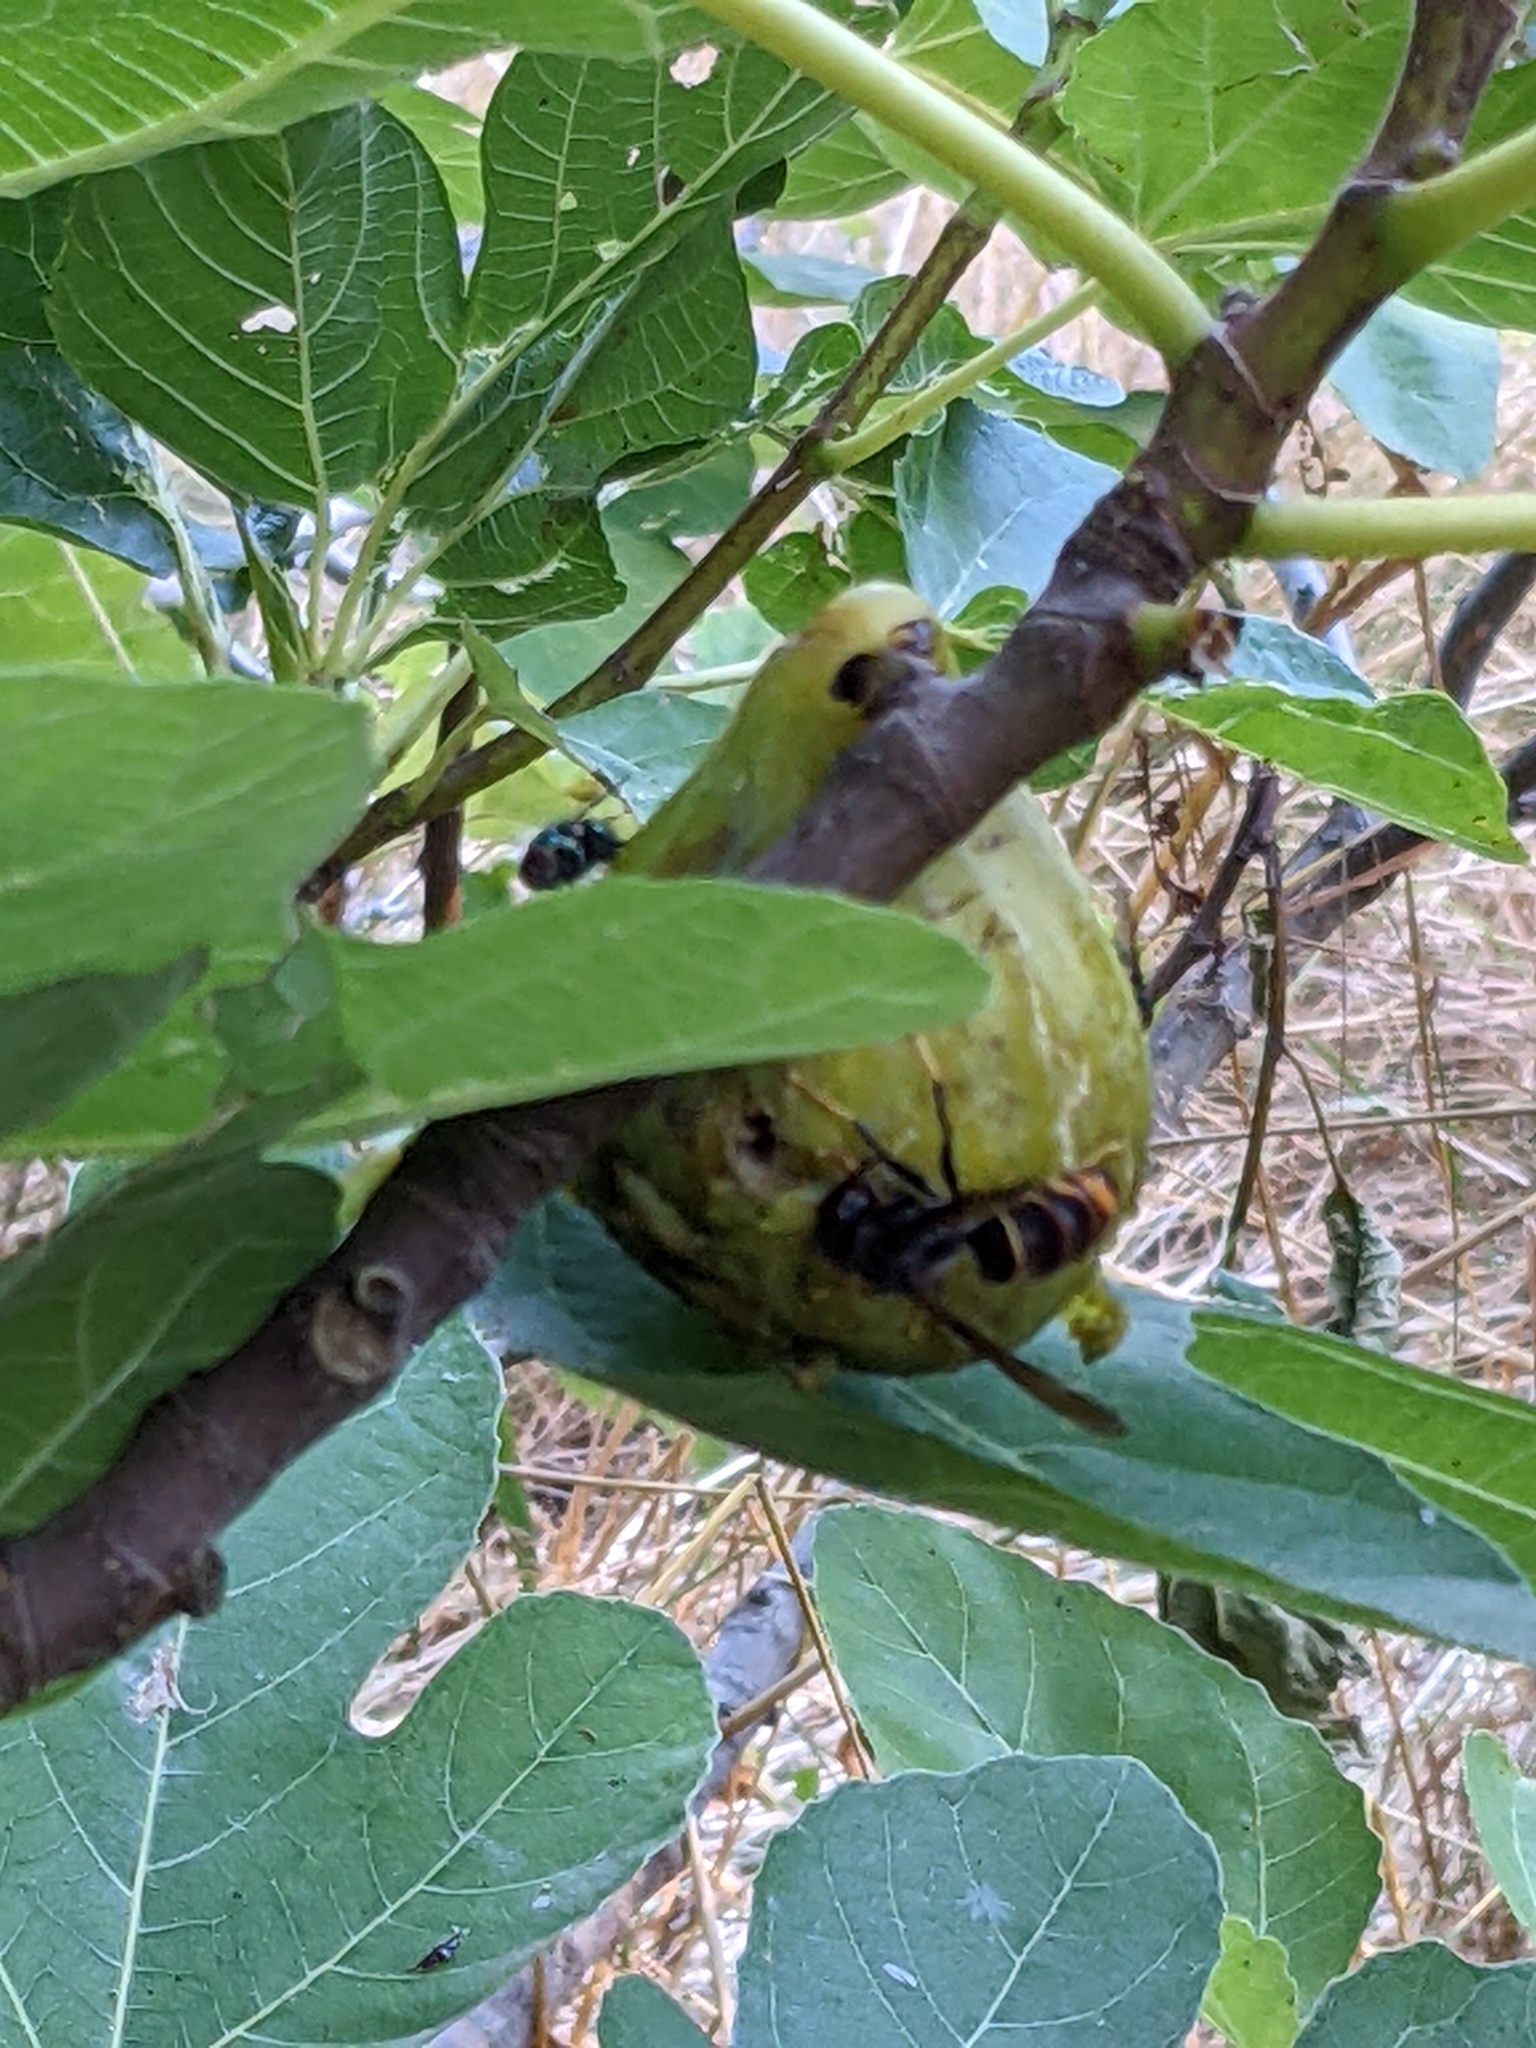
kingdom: Animalia
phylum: Arthropoda
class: Insecta
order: Hymenoptera
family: Vespidae
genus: Vespa
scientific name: Vespa velutina
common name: Asian hornet
